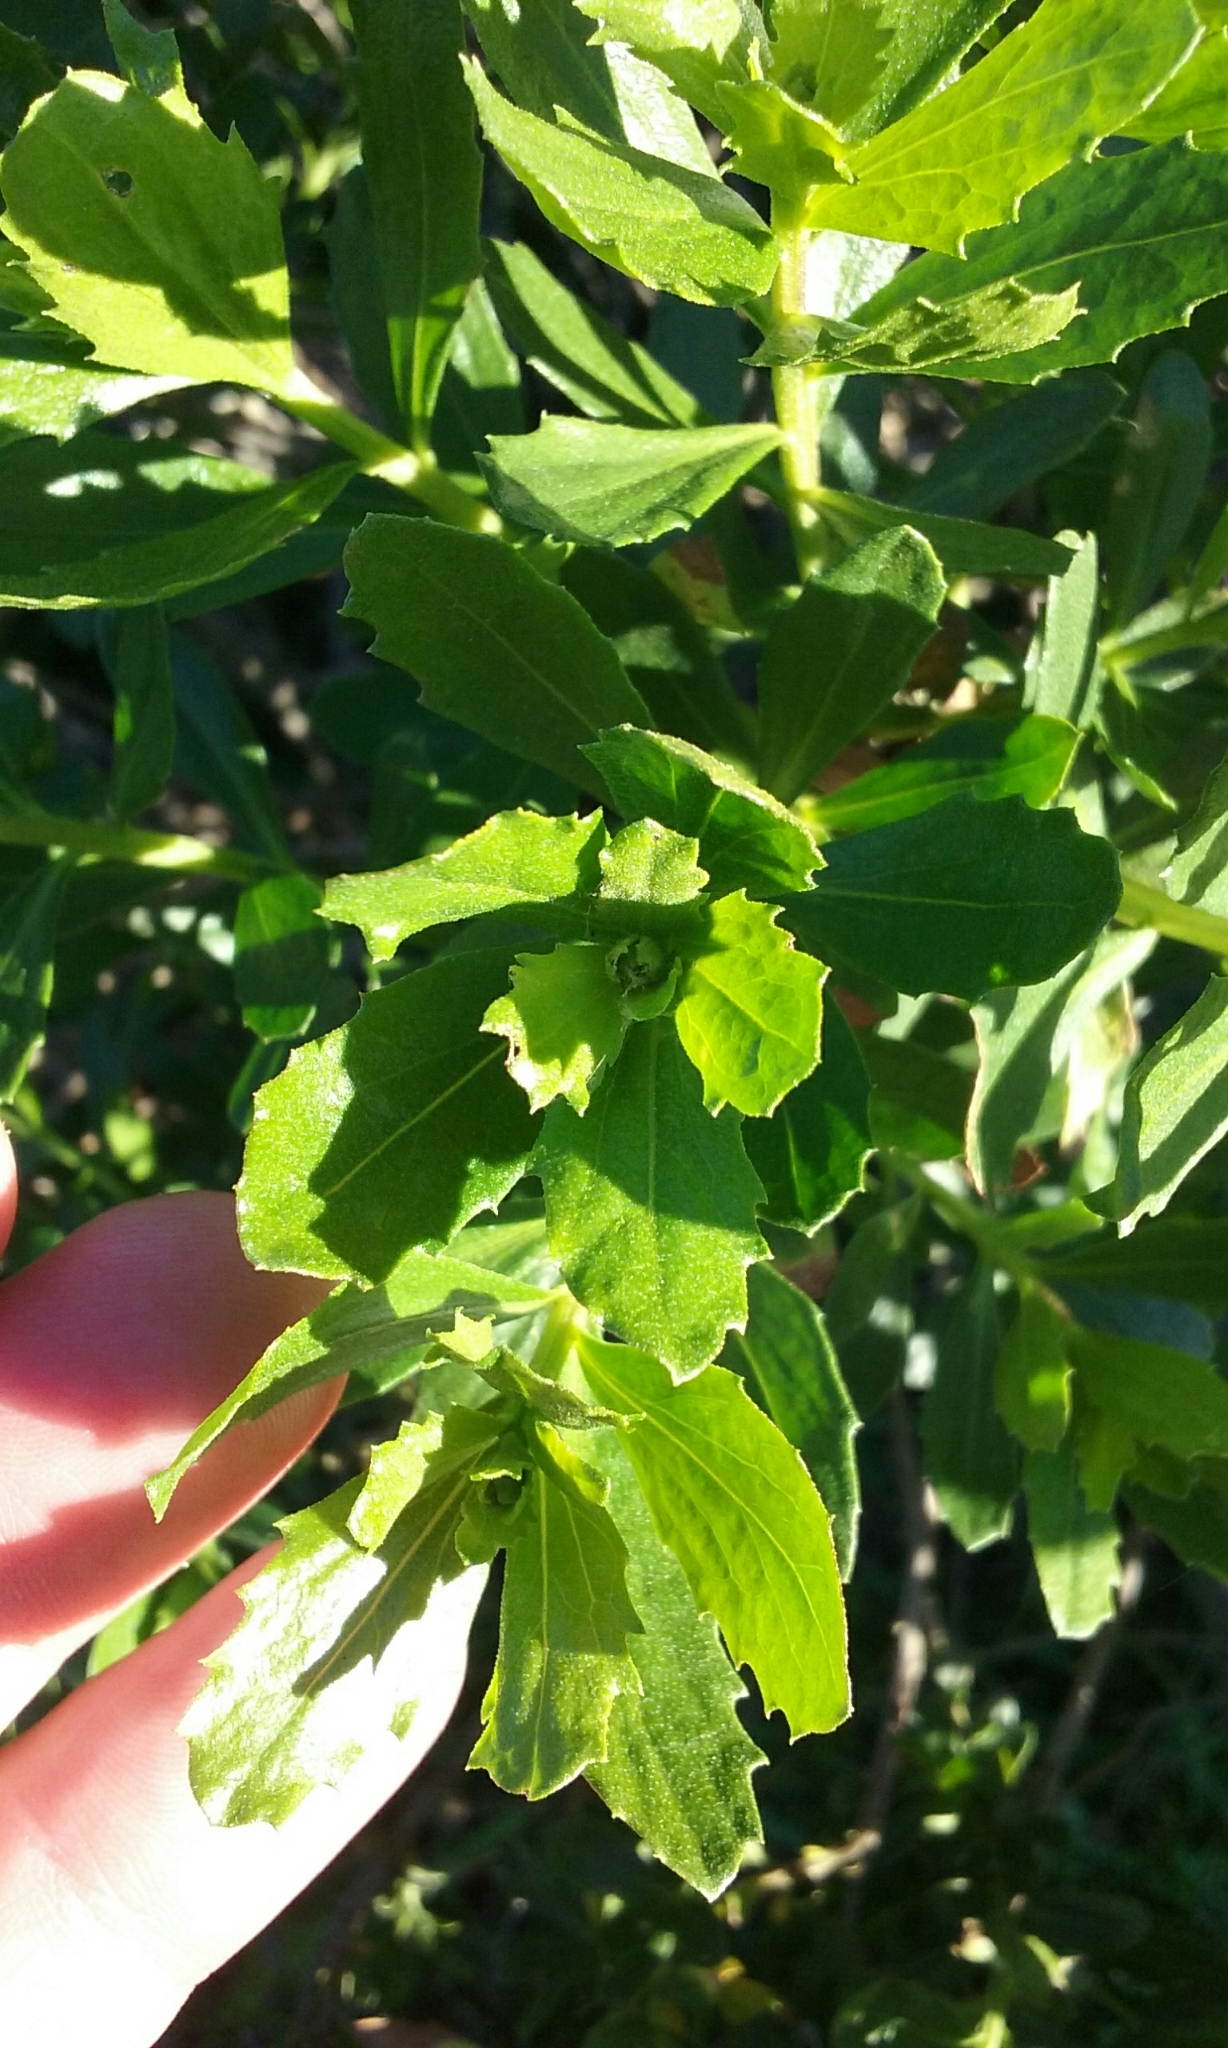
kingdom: Plantae
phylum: Tracheophyta
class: Magnoliopsida
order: Asterales
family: Asteraceae
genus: Baccharis
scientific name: Baccharis pilularis
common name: Coyotebrush
